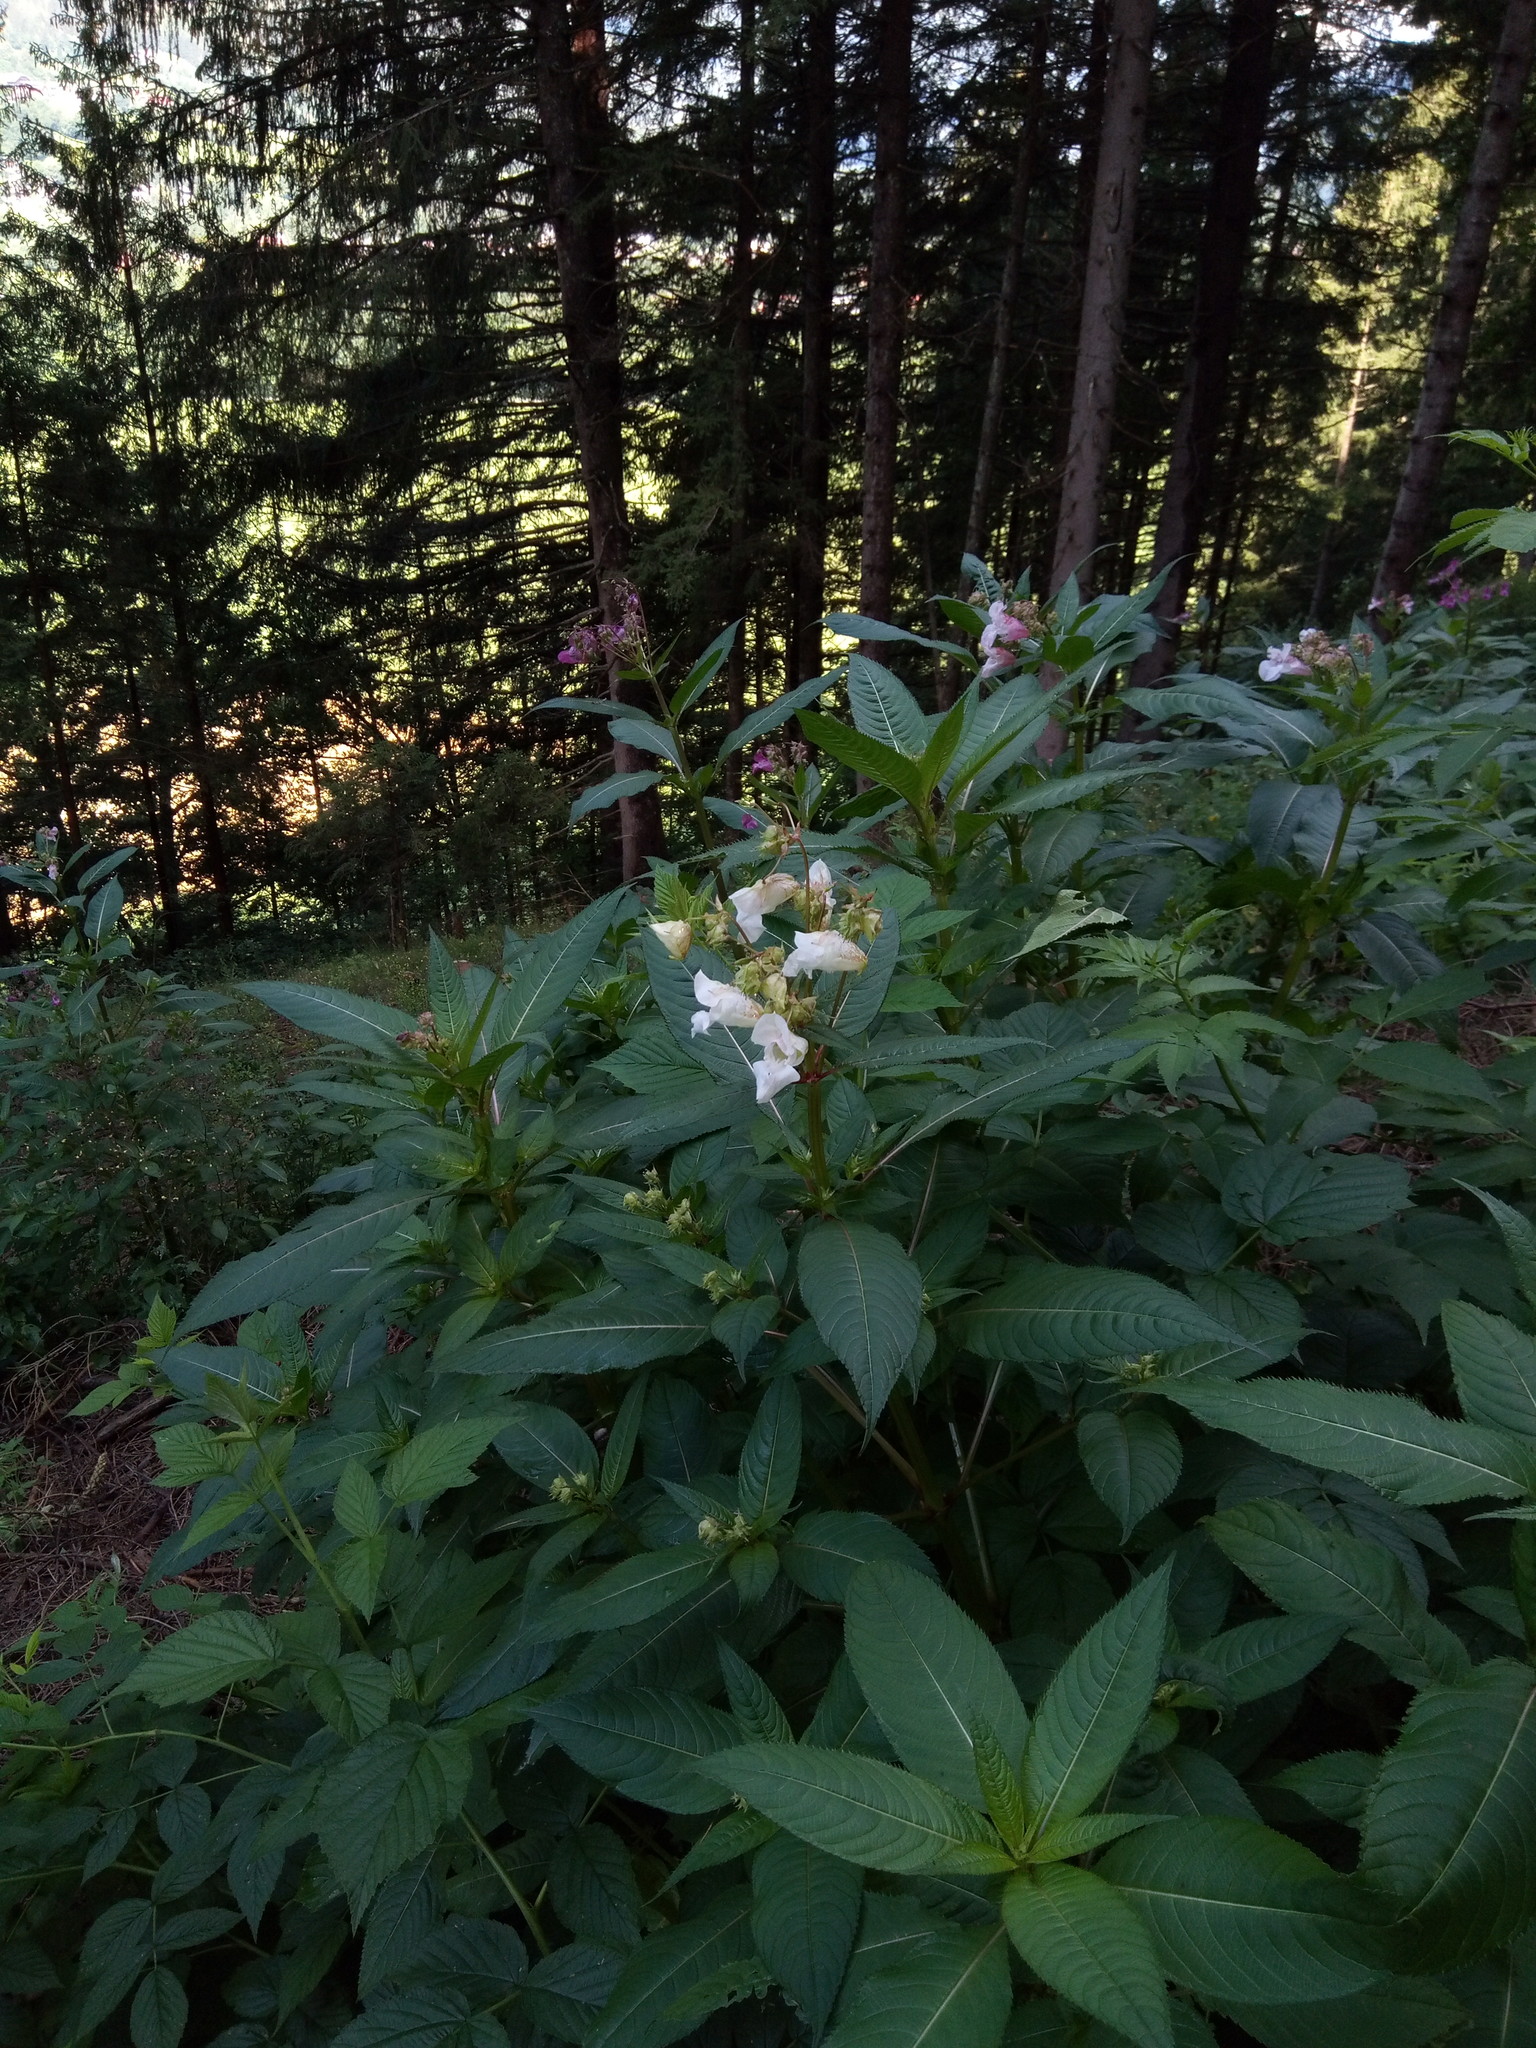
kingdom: Plantae
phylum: Tracheophyta
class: Magnoliopsida
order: Ericales
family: Balsaminaceae
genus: Impatiens
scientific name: Impatiens glandulifera
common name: Himalayan balsam
